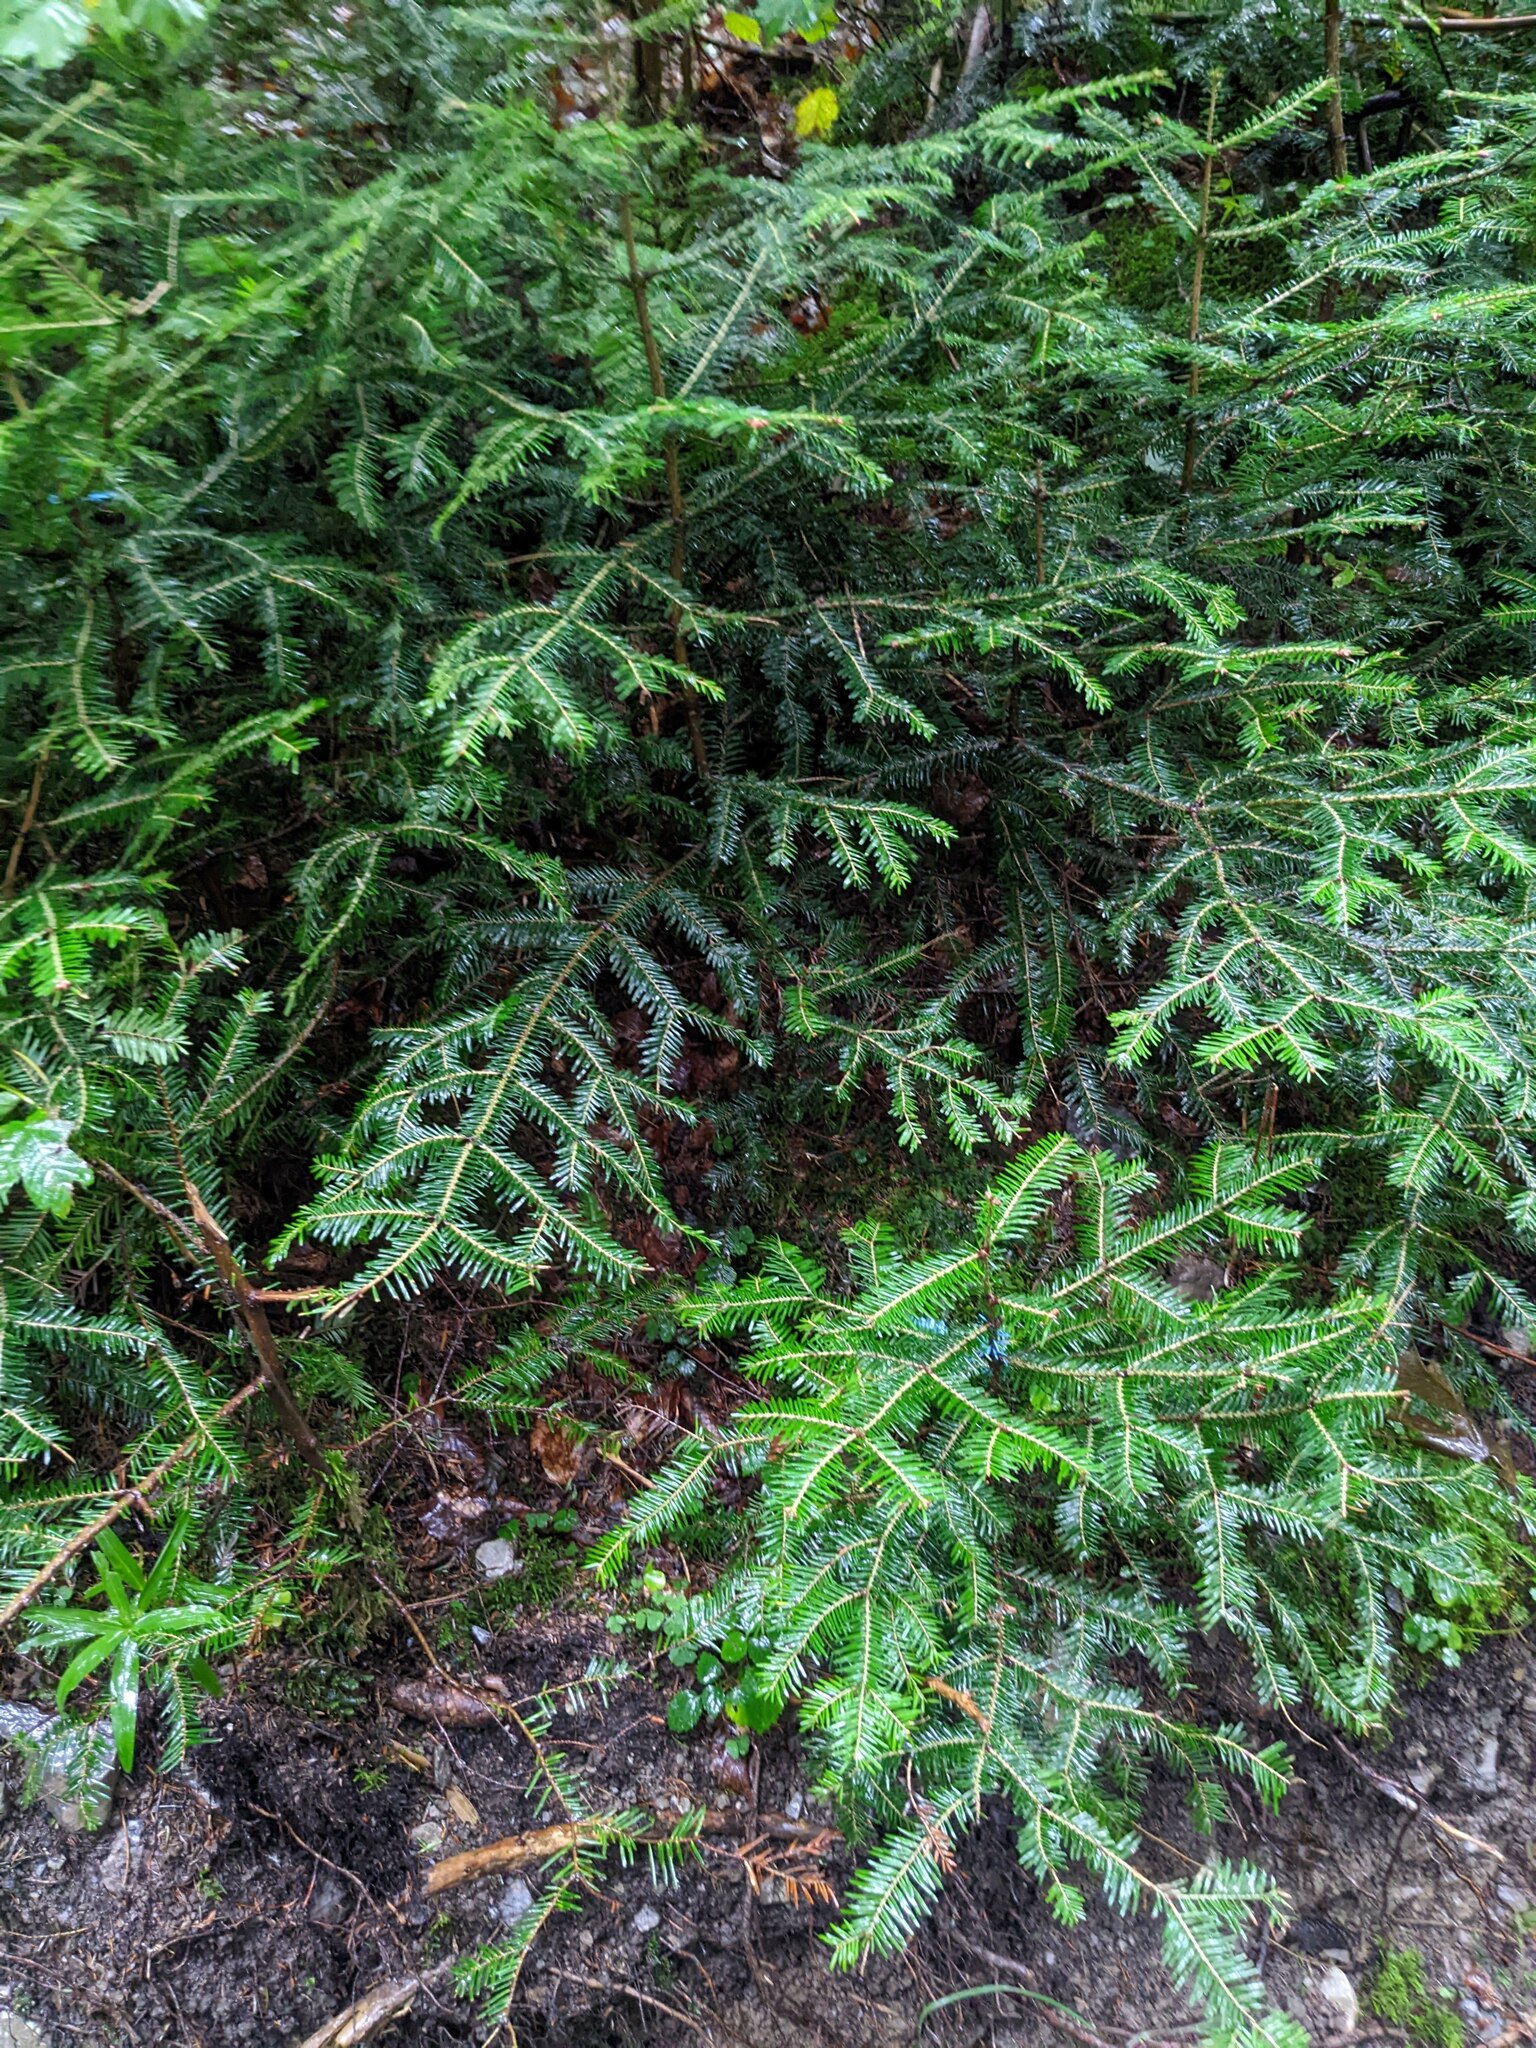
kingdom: Plantae
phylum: Tracheophyta
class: Pinopsida
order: Pinales
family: Pinaceae
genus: Abies
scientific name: Abies alba
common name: Silver fir
